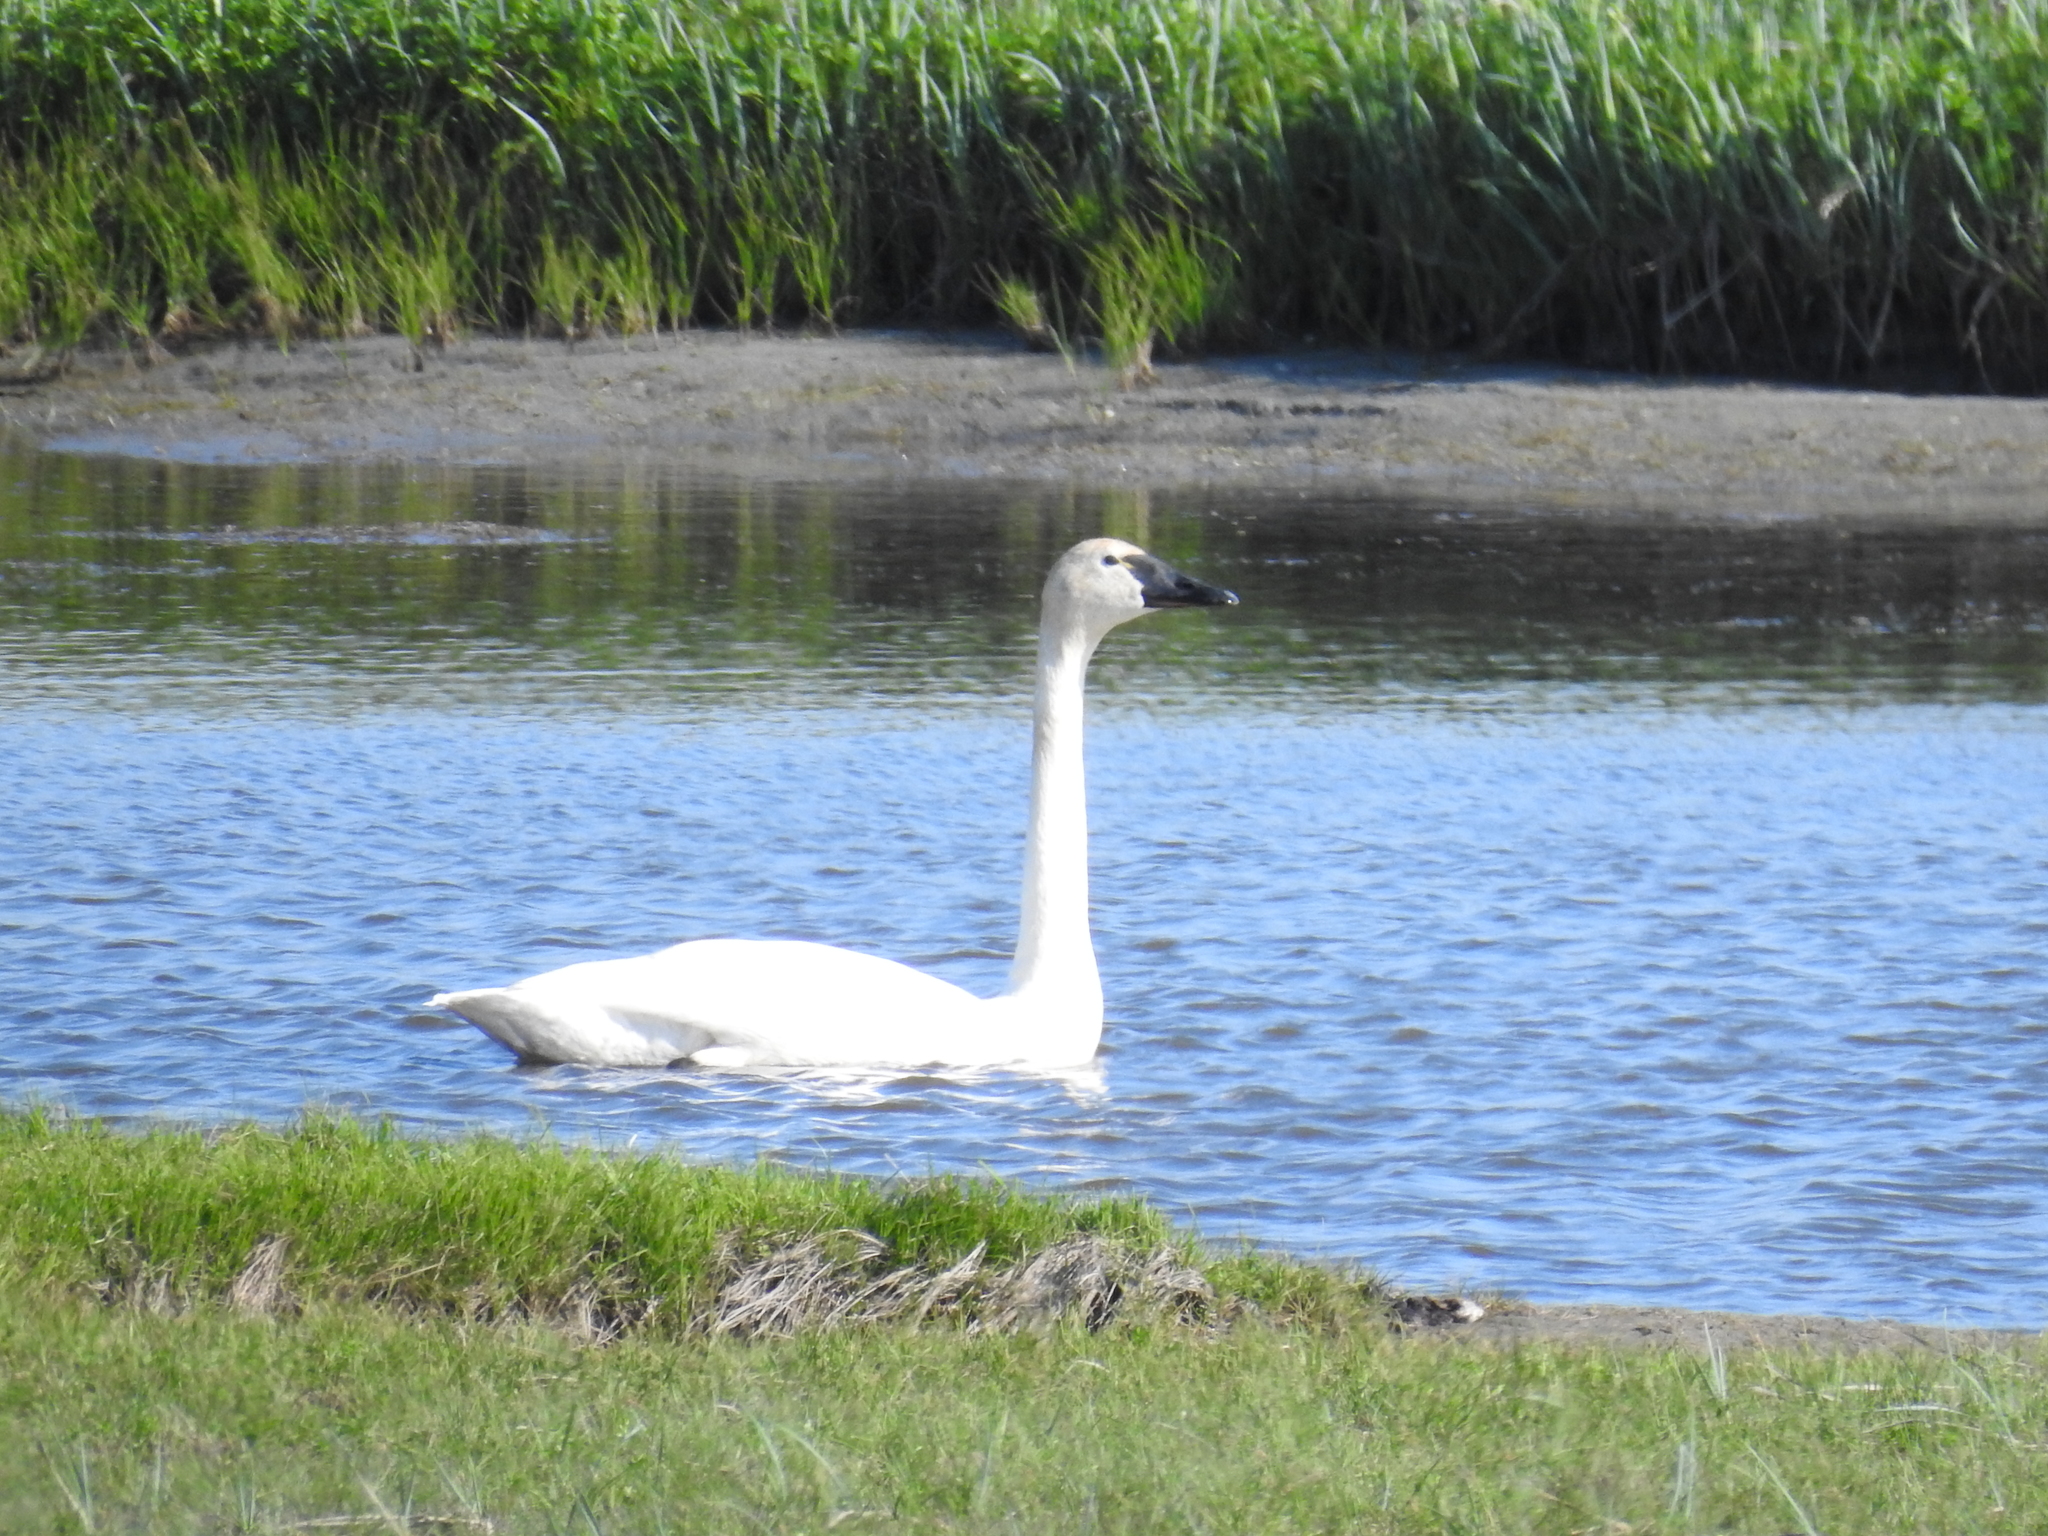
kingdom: Animalia
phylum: Chordata
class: Aves
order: Anseriformes
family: Anatidae
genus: Cygnus
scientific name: Cygnus columbianus
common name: Tundra swan
